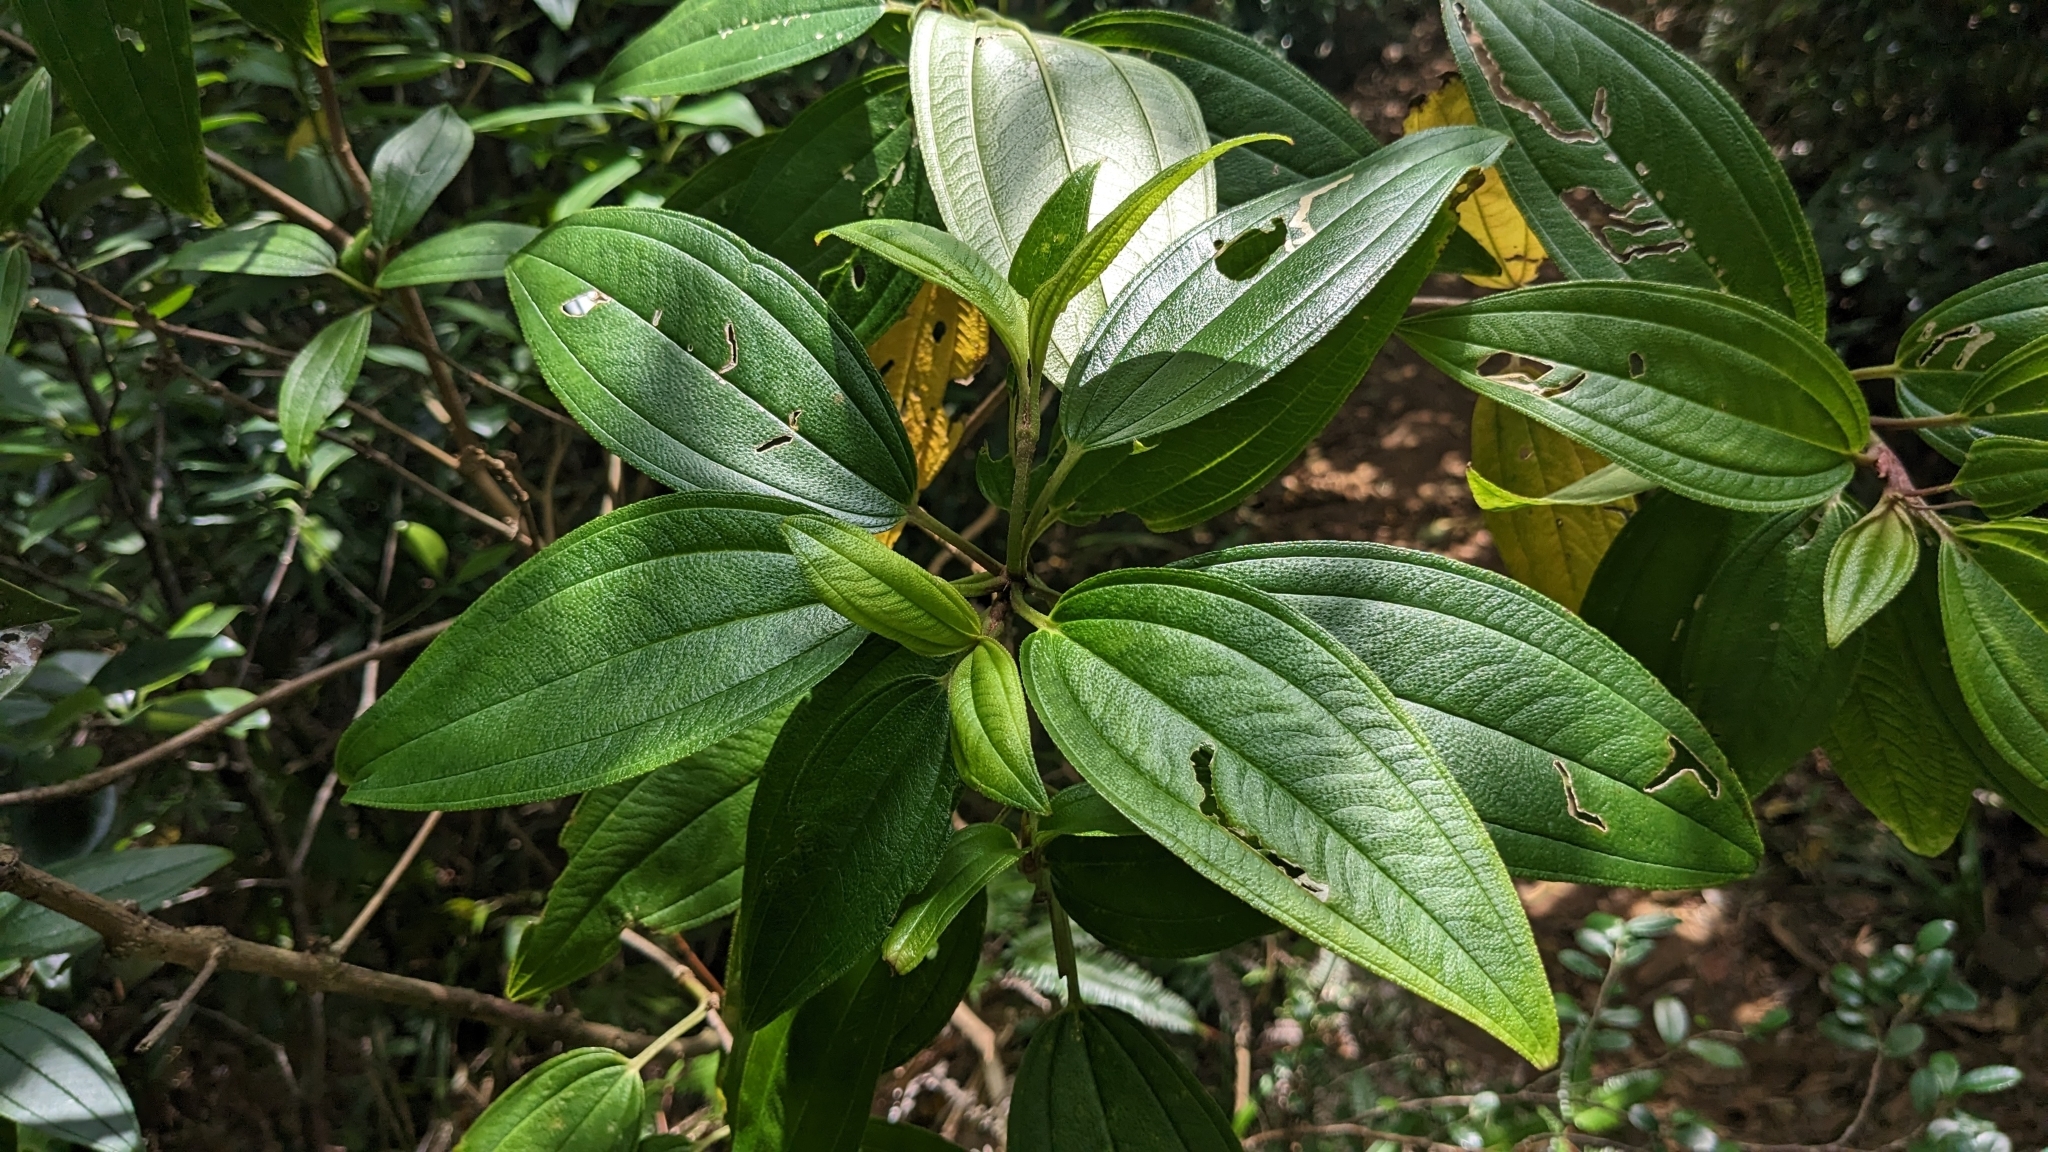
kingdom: Plantae
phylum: Tracheophyta
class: Magnoliopsida
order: Myrtales
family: Melastomataceae
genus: Melastoma
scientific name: Melastoma malabathricum
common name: Indian-rhododendron
